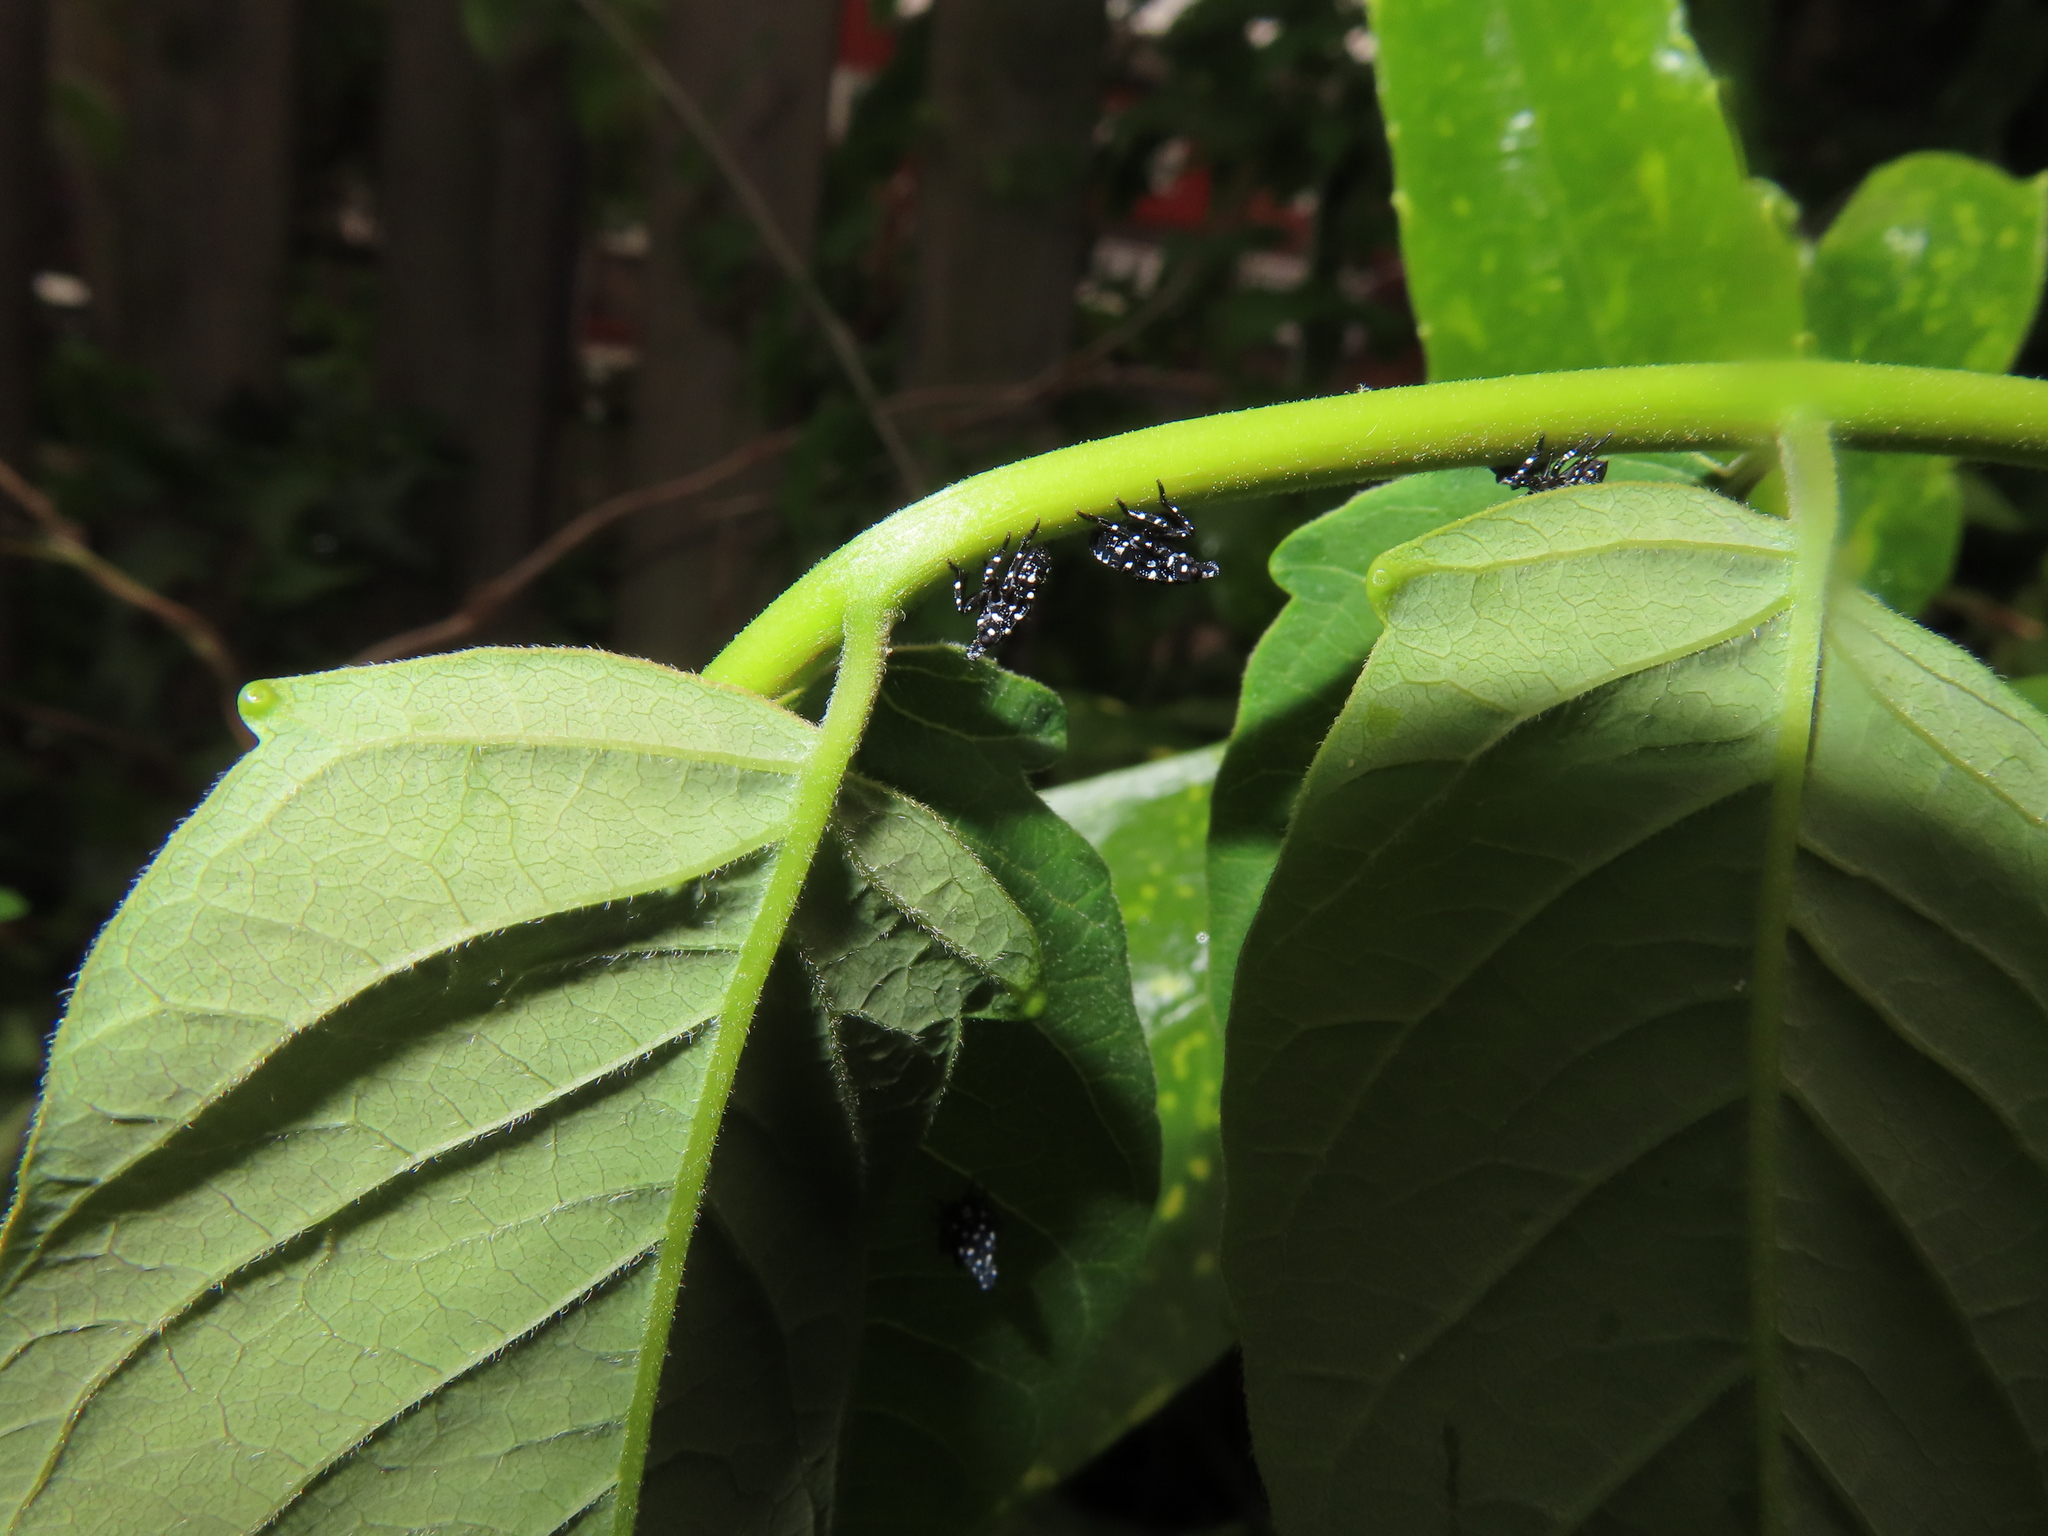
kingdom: Animalia
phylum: Arthropoda
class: Insecta
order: Hemiptera
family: Fulgoridae
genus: Lycorma
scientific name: Lycorma delicatula
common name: Spotted lanternfly
